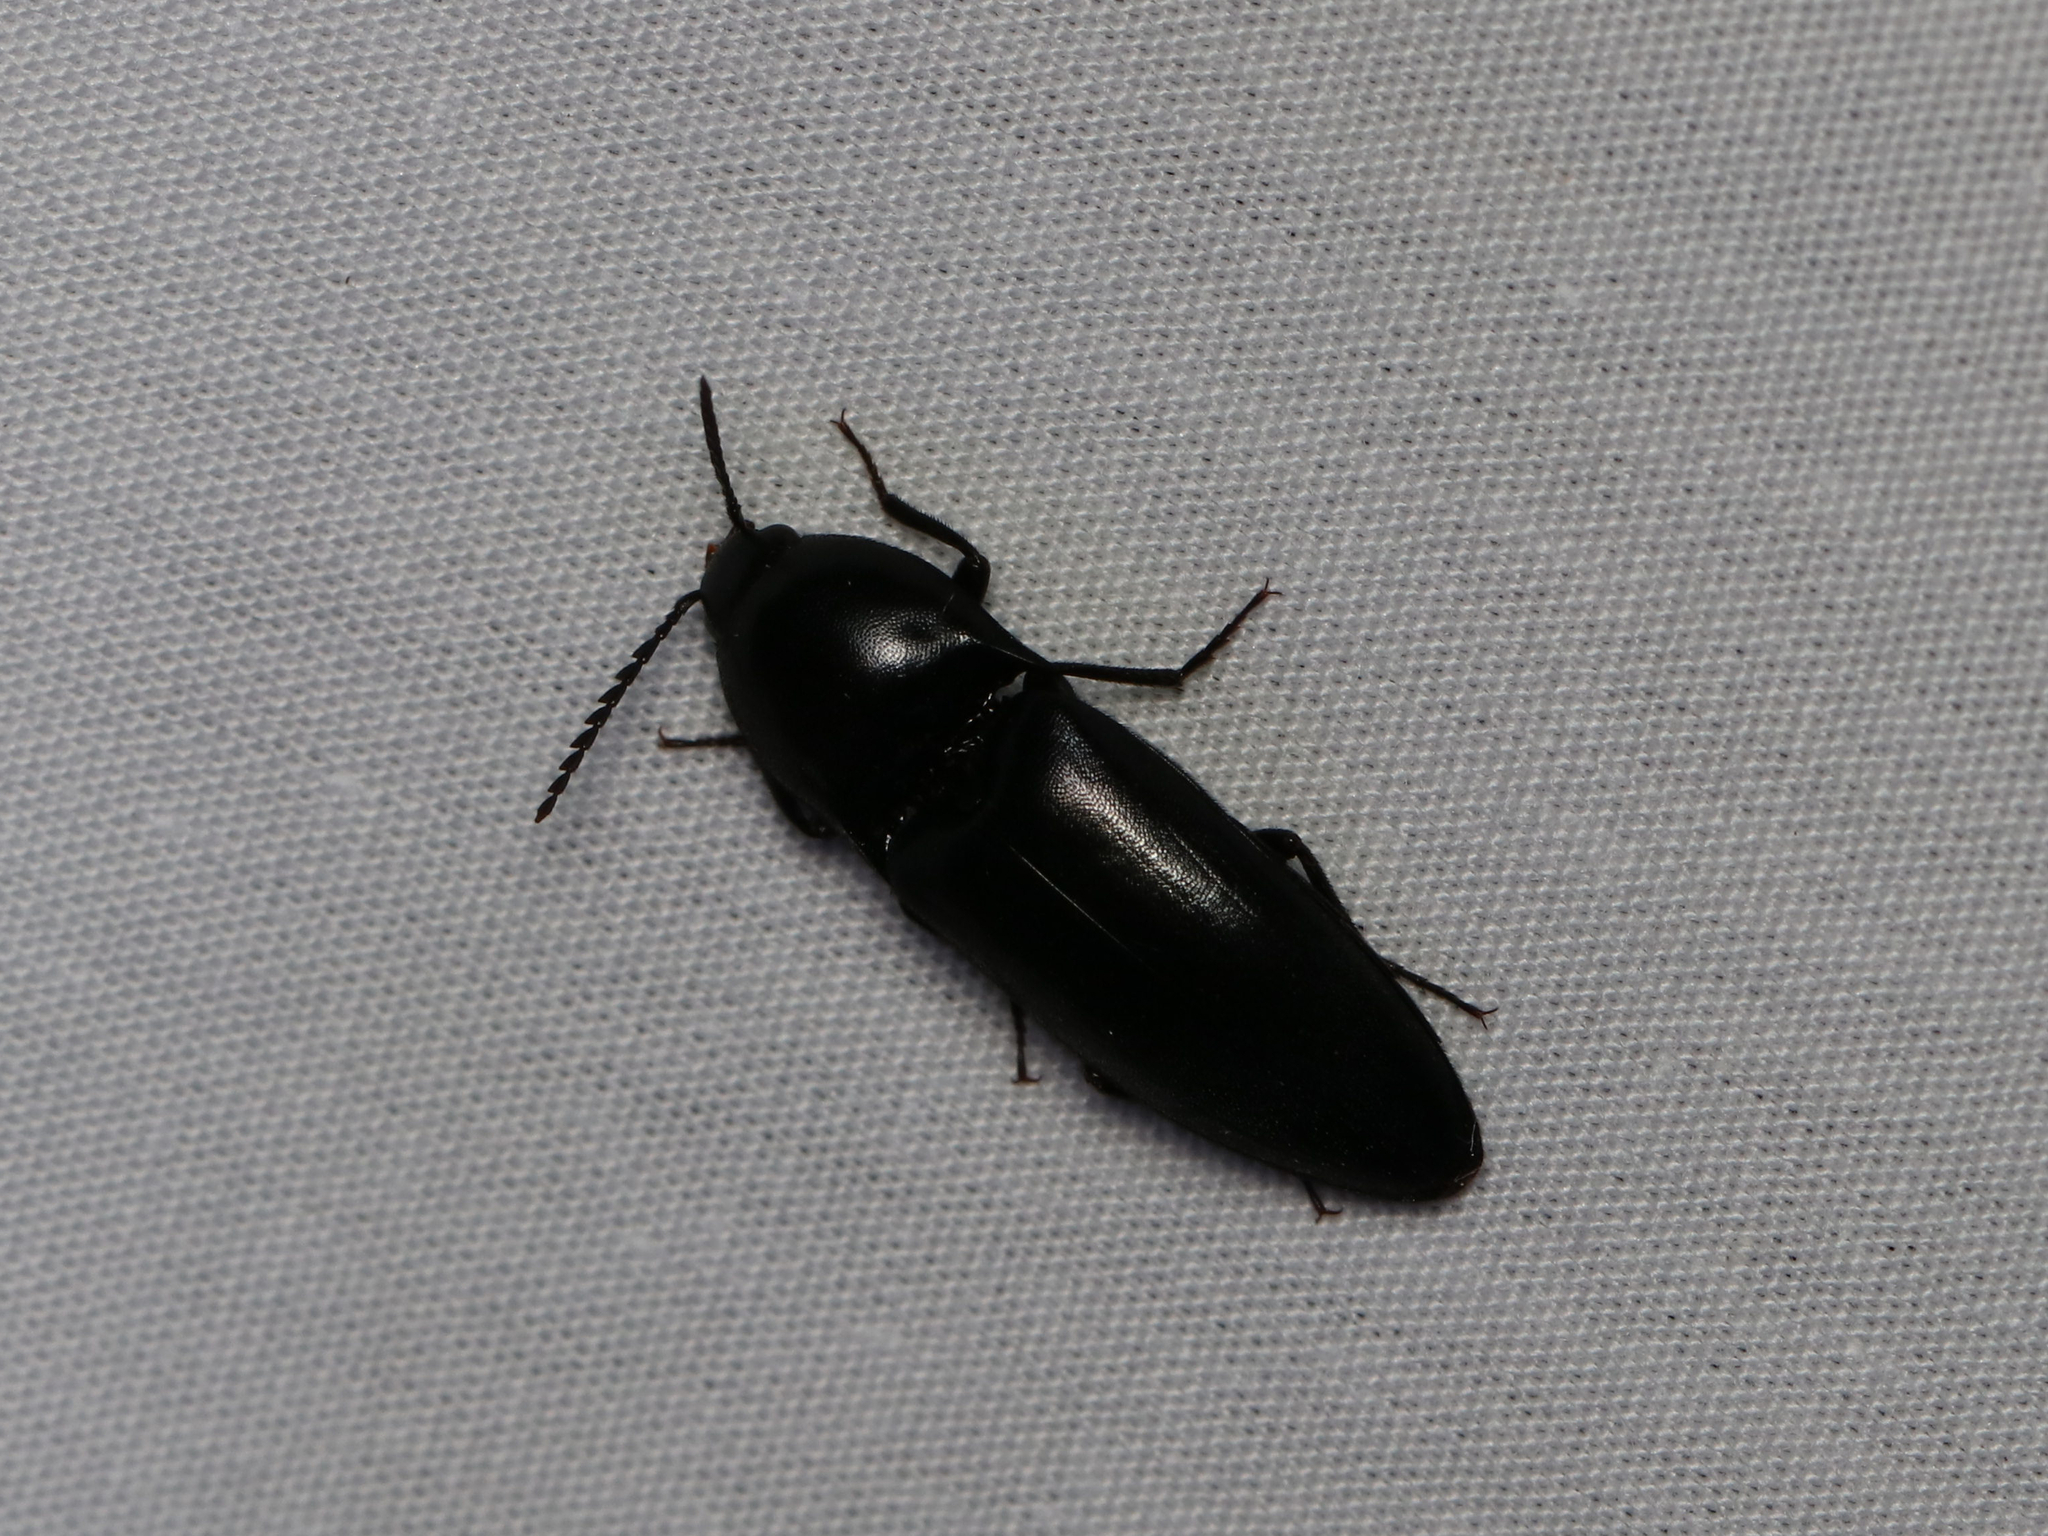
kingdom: Animalia
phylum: Arthropoda
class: Insecta
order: Coleoptera
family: Elateridae
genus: Elater
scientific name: Elater abruptus
